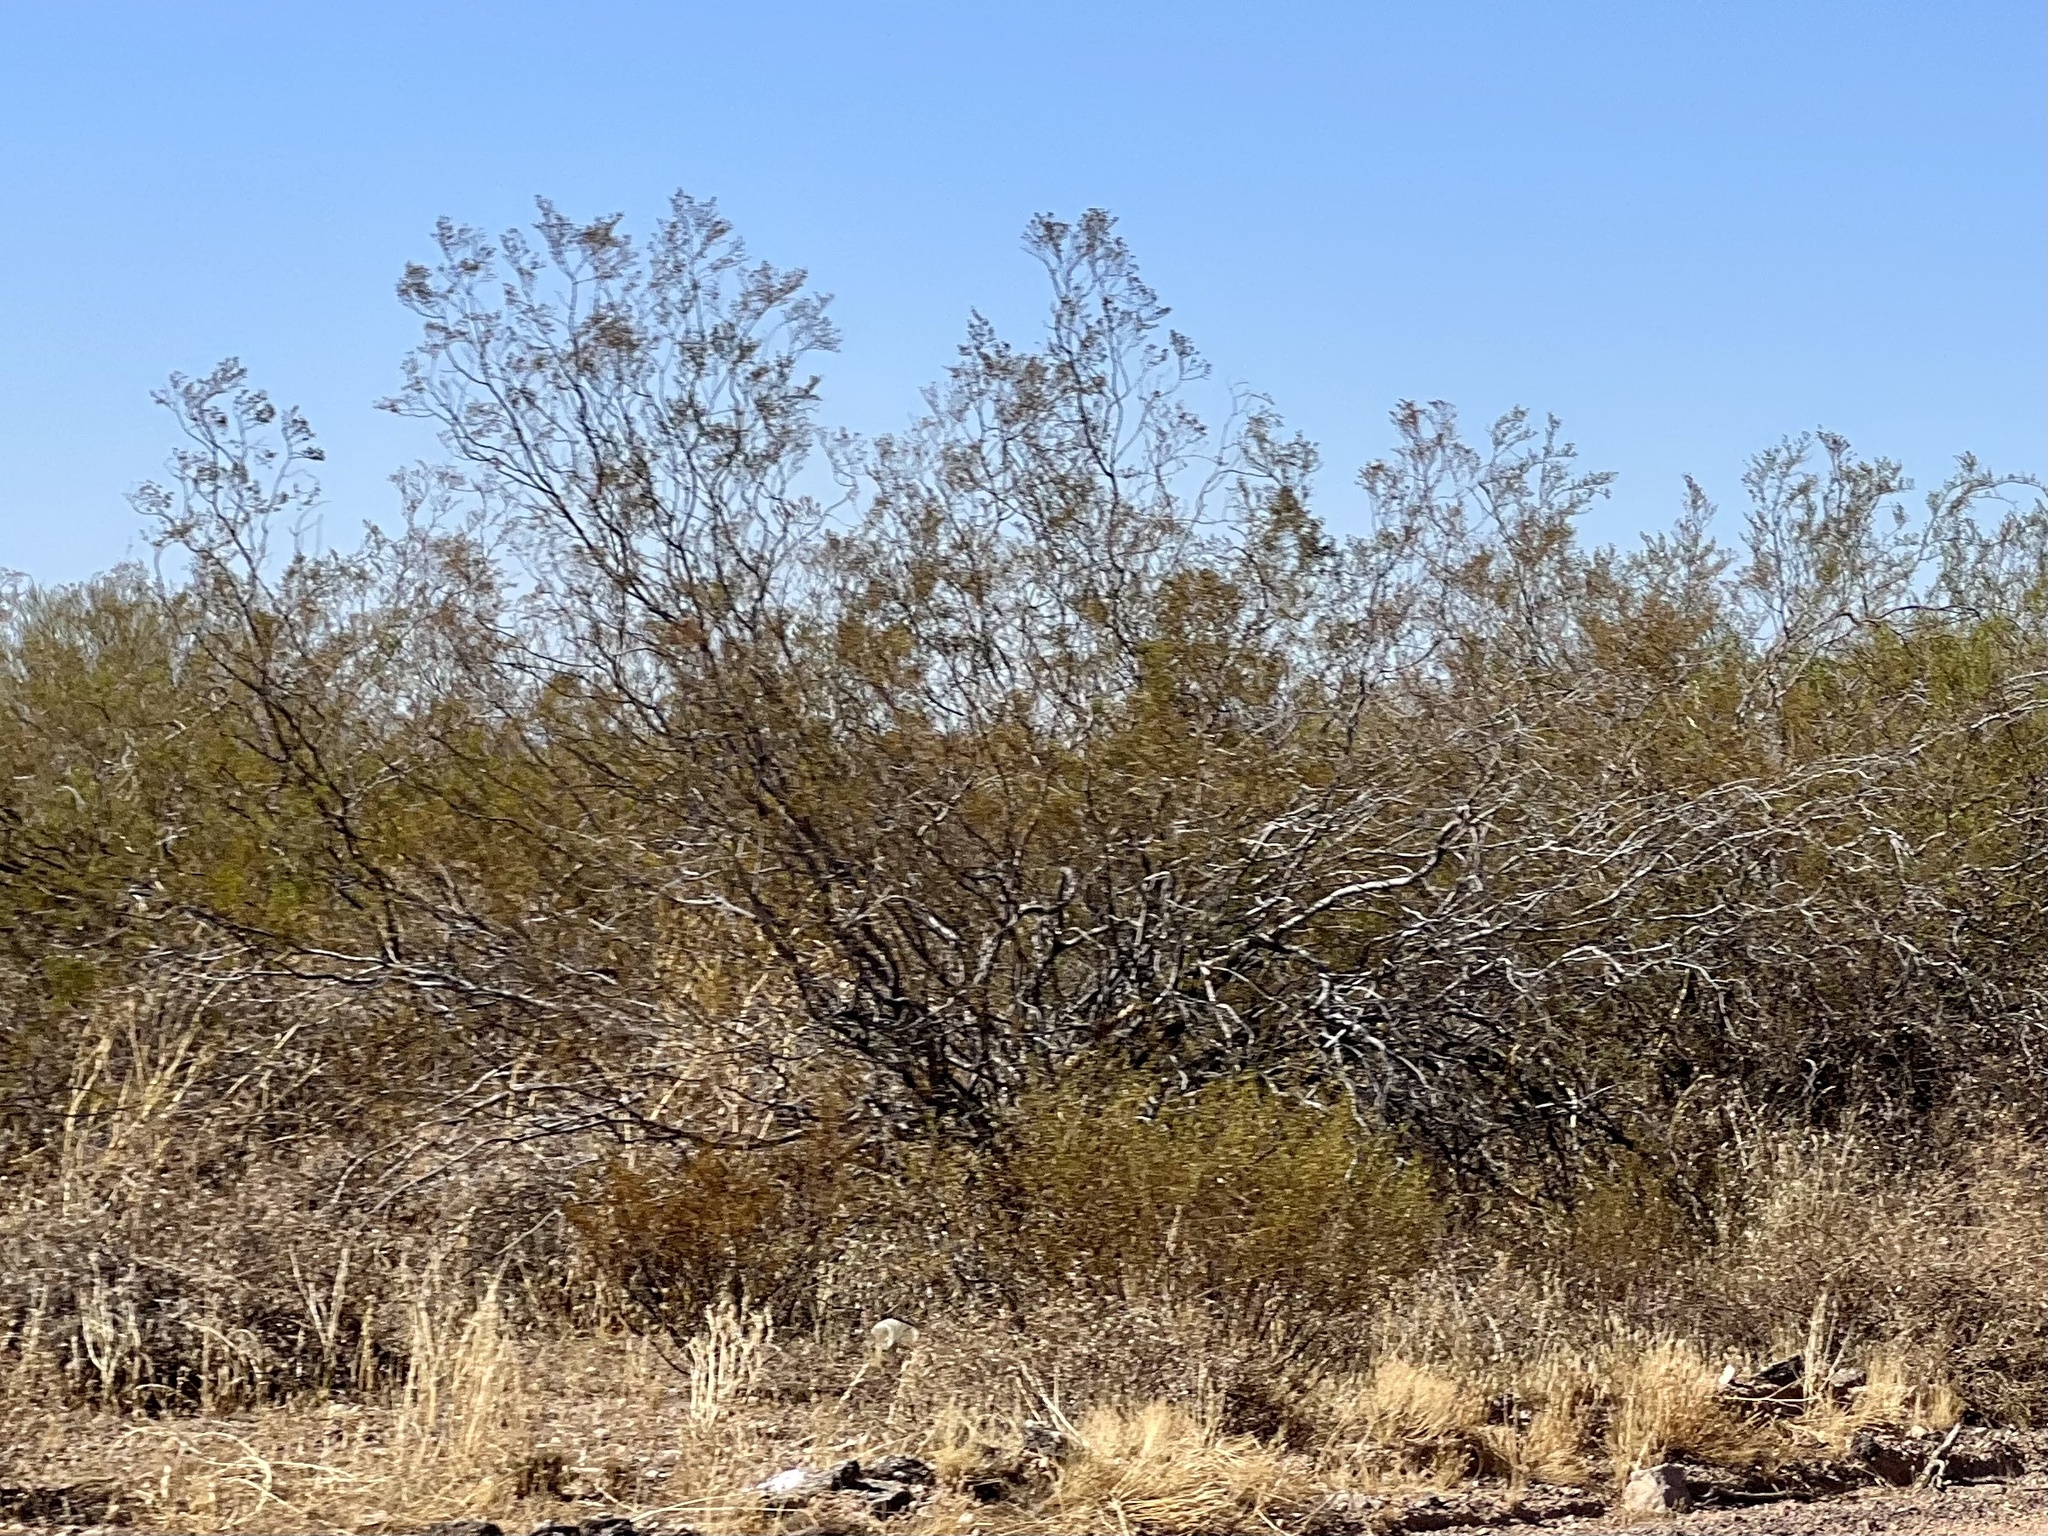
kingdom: Plantae
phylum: Tracheophyta
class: Magnoliopsida
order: Zygophyllales
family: Zygophyllaceae
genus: Larrea
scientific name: Larrea tridentata
